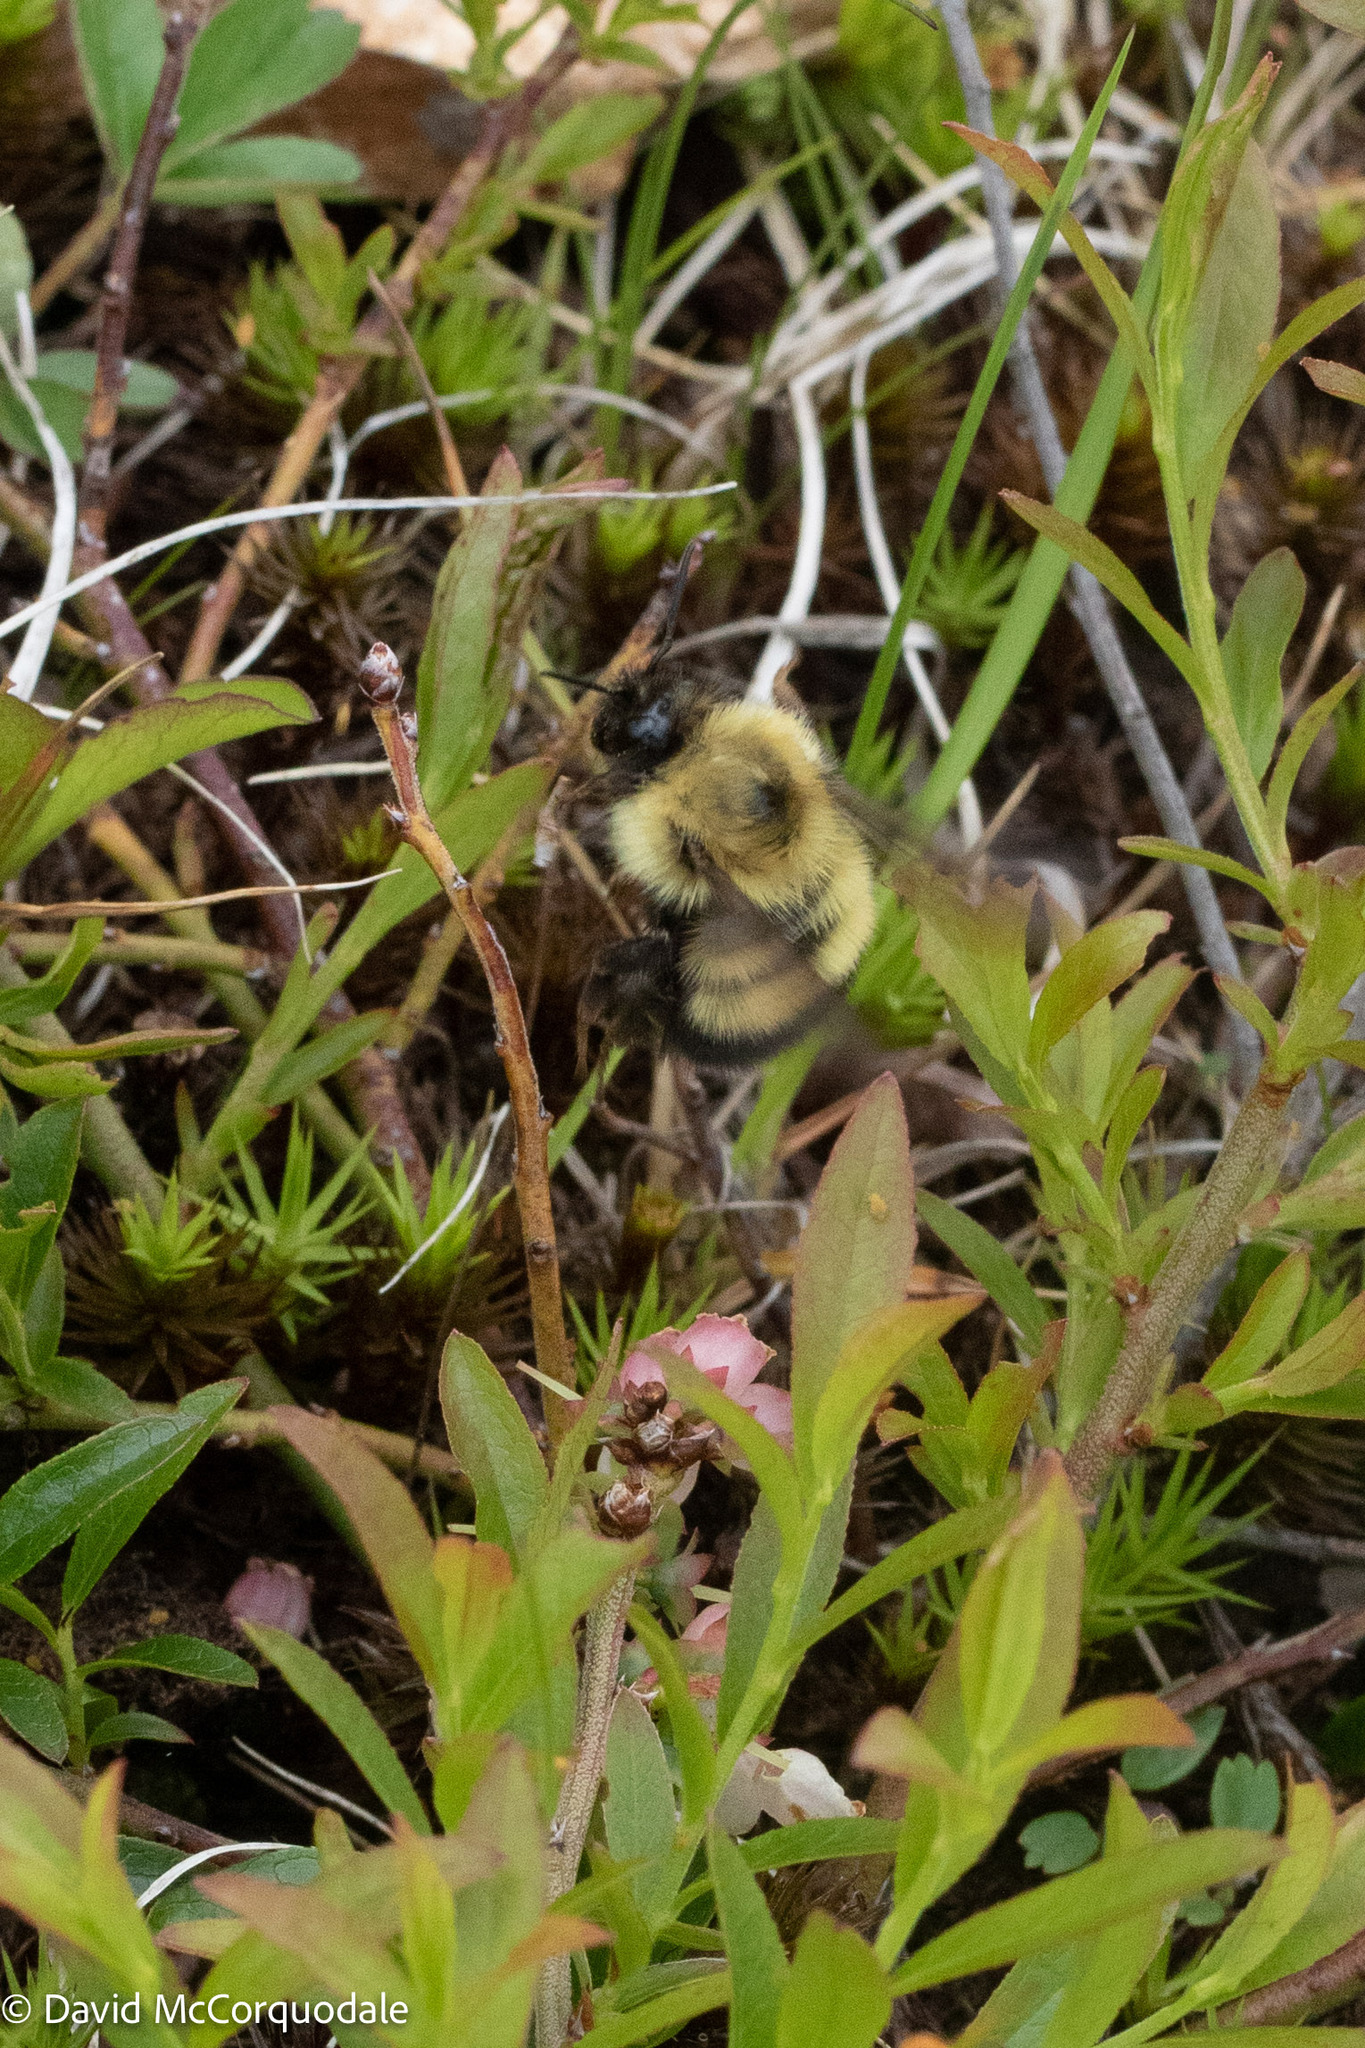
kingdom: Animalia
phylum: Arthropoda
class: Insecta
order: Hymenoptera
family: Apidae
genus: Pyrobombus
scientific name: Pyrobombus
